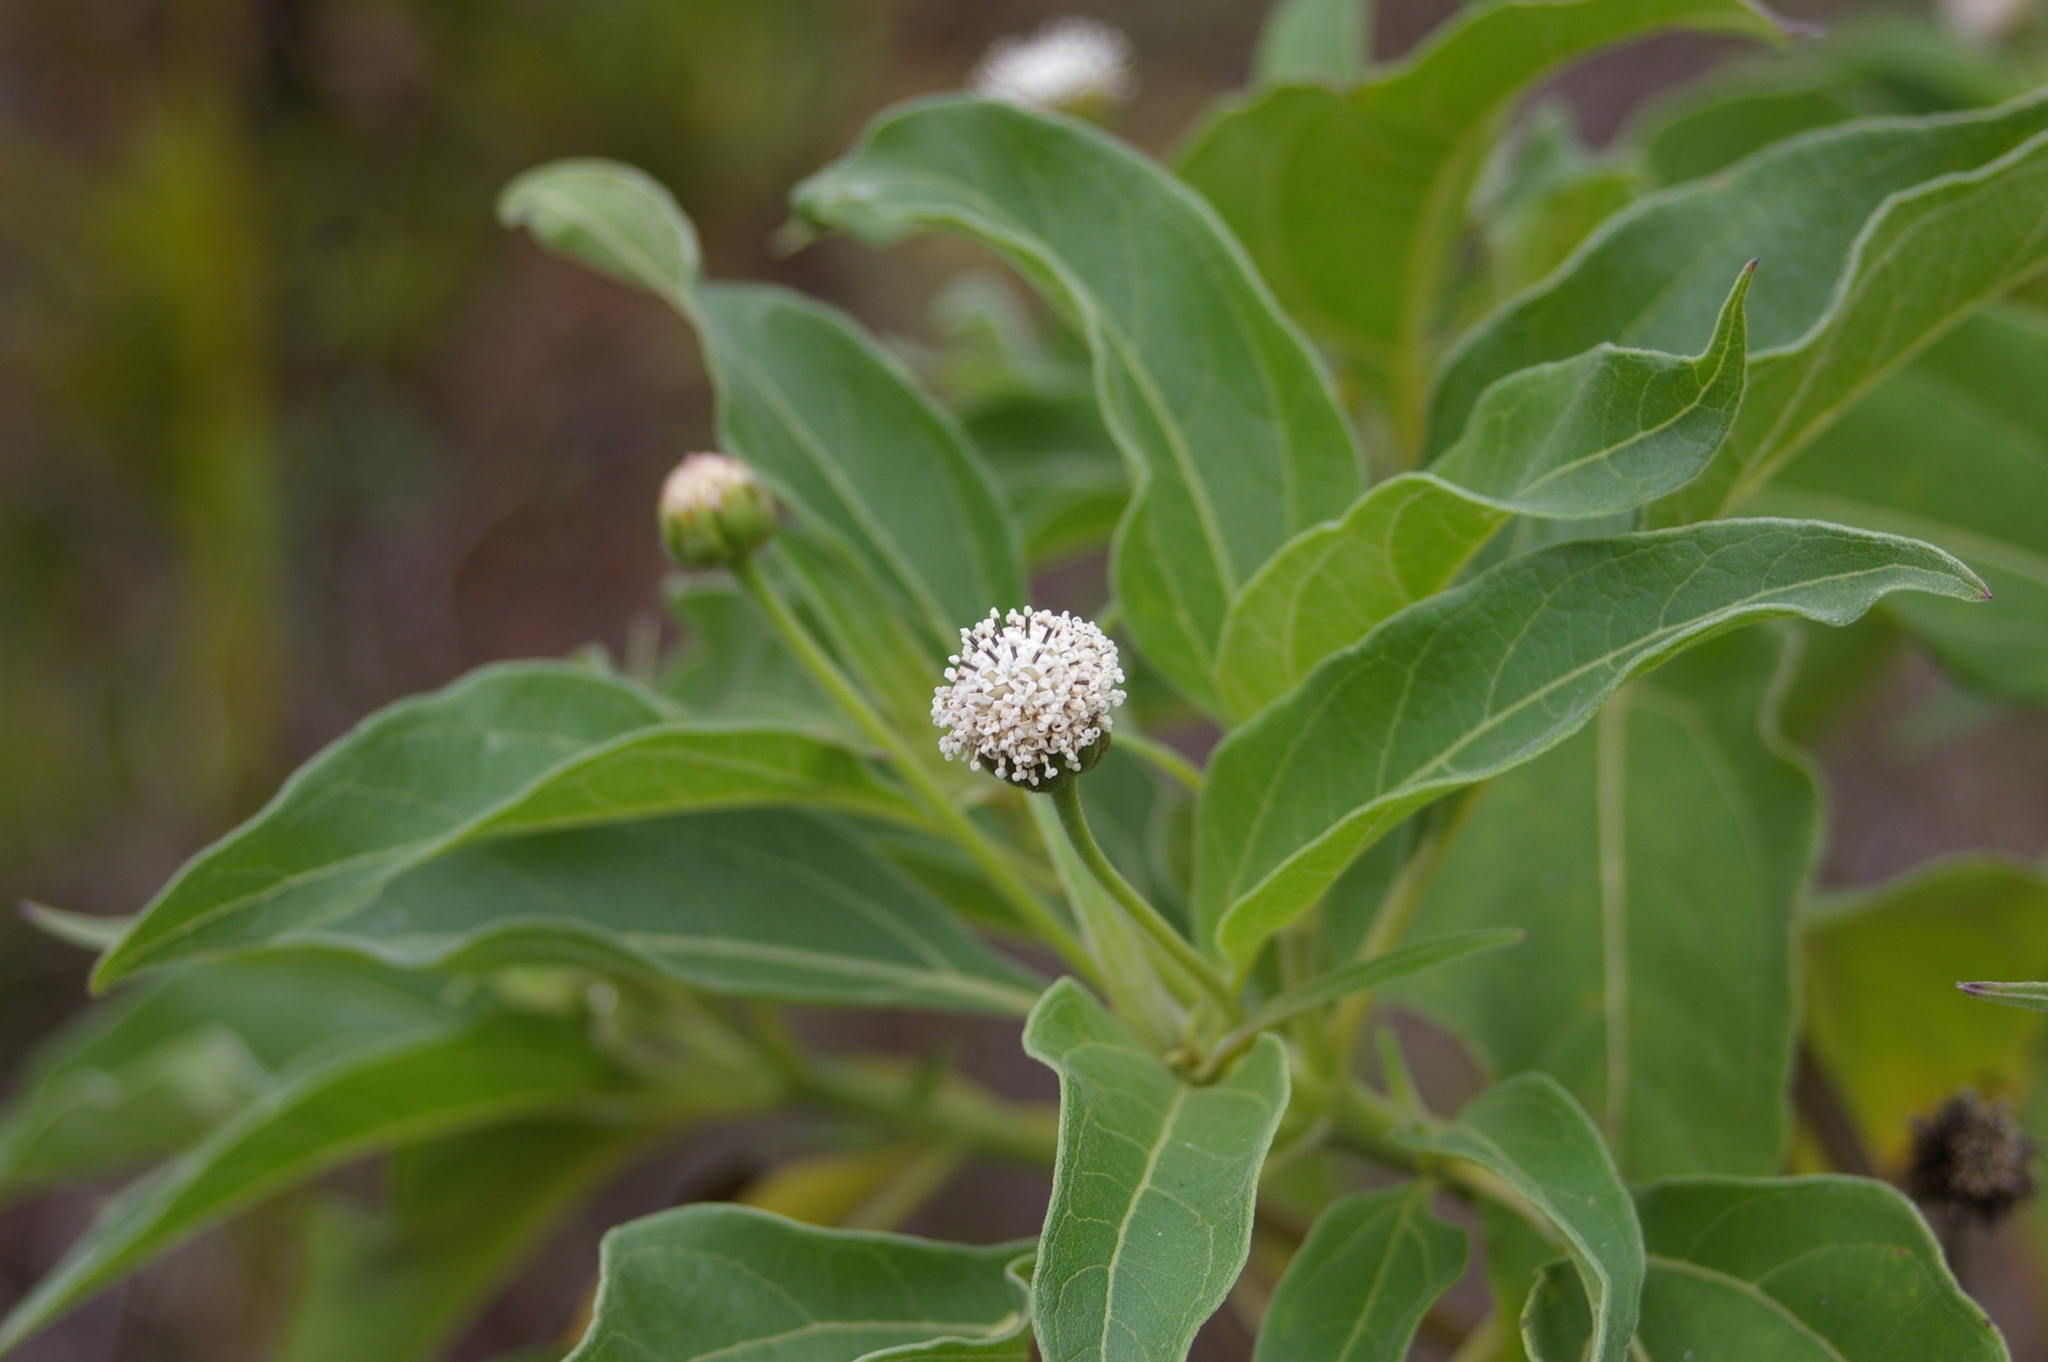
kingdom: Plantae
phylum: Tracheophyta
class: Magnoliopsida
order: Asterales
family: Asteraceae
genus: Scalesia
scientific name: Scalesia pedunculata
